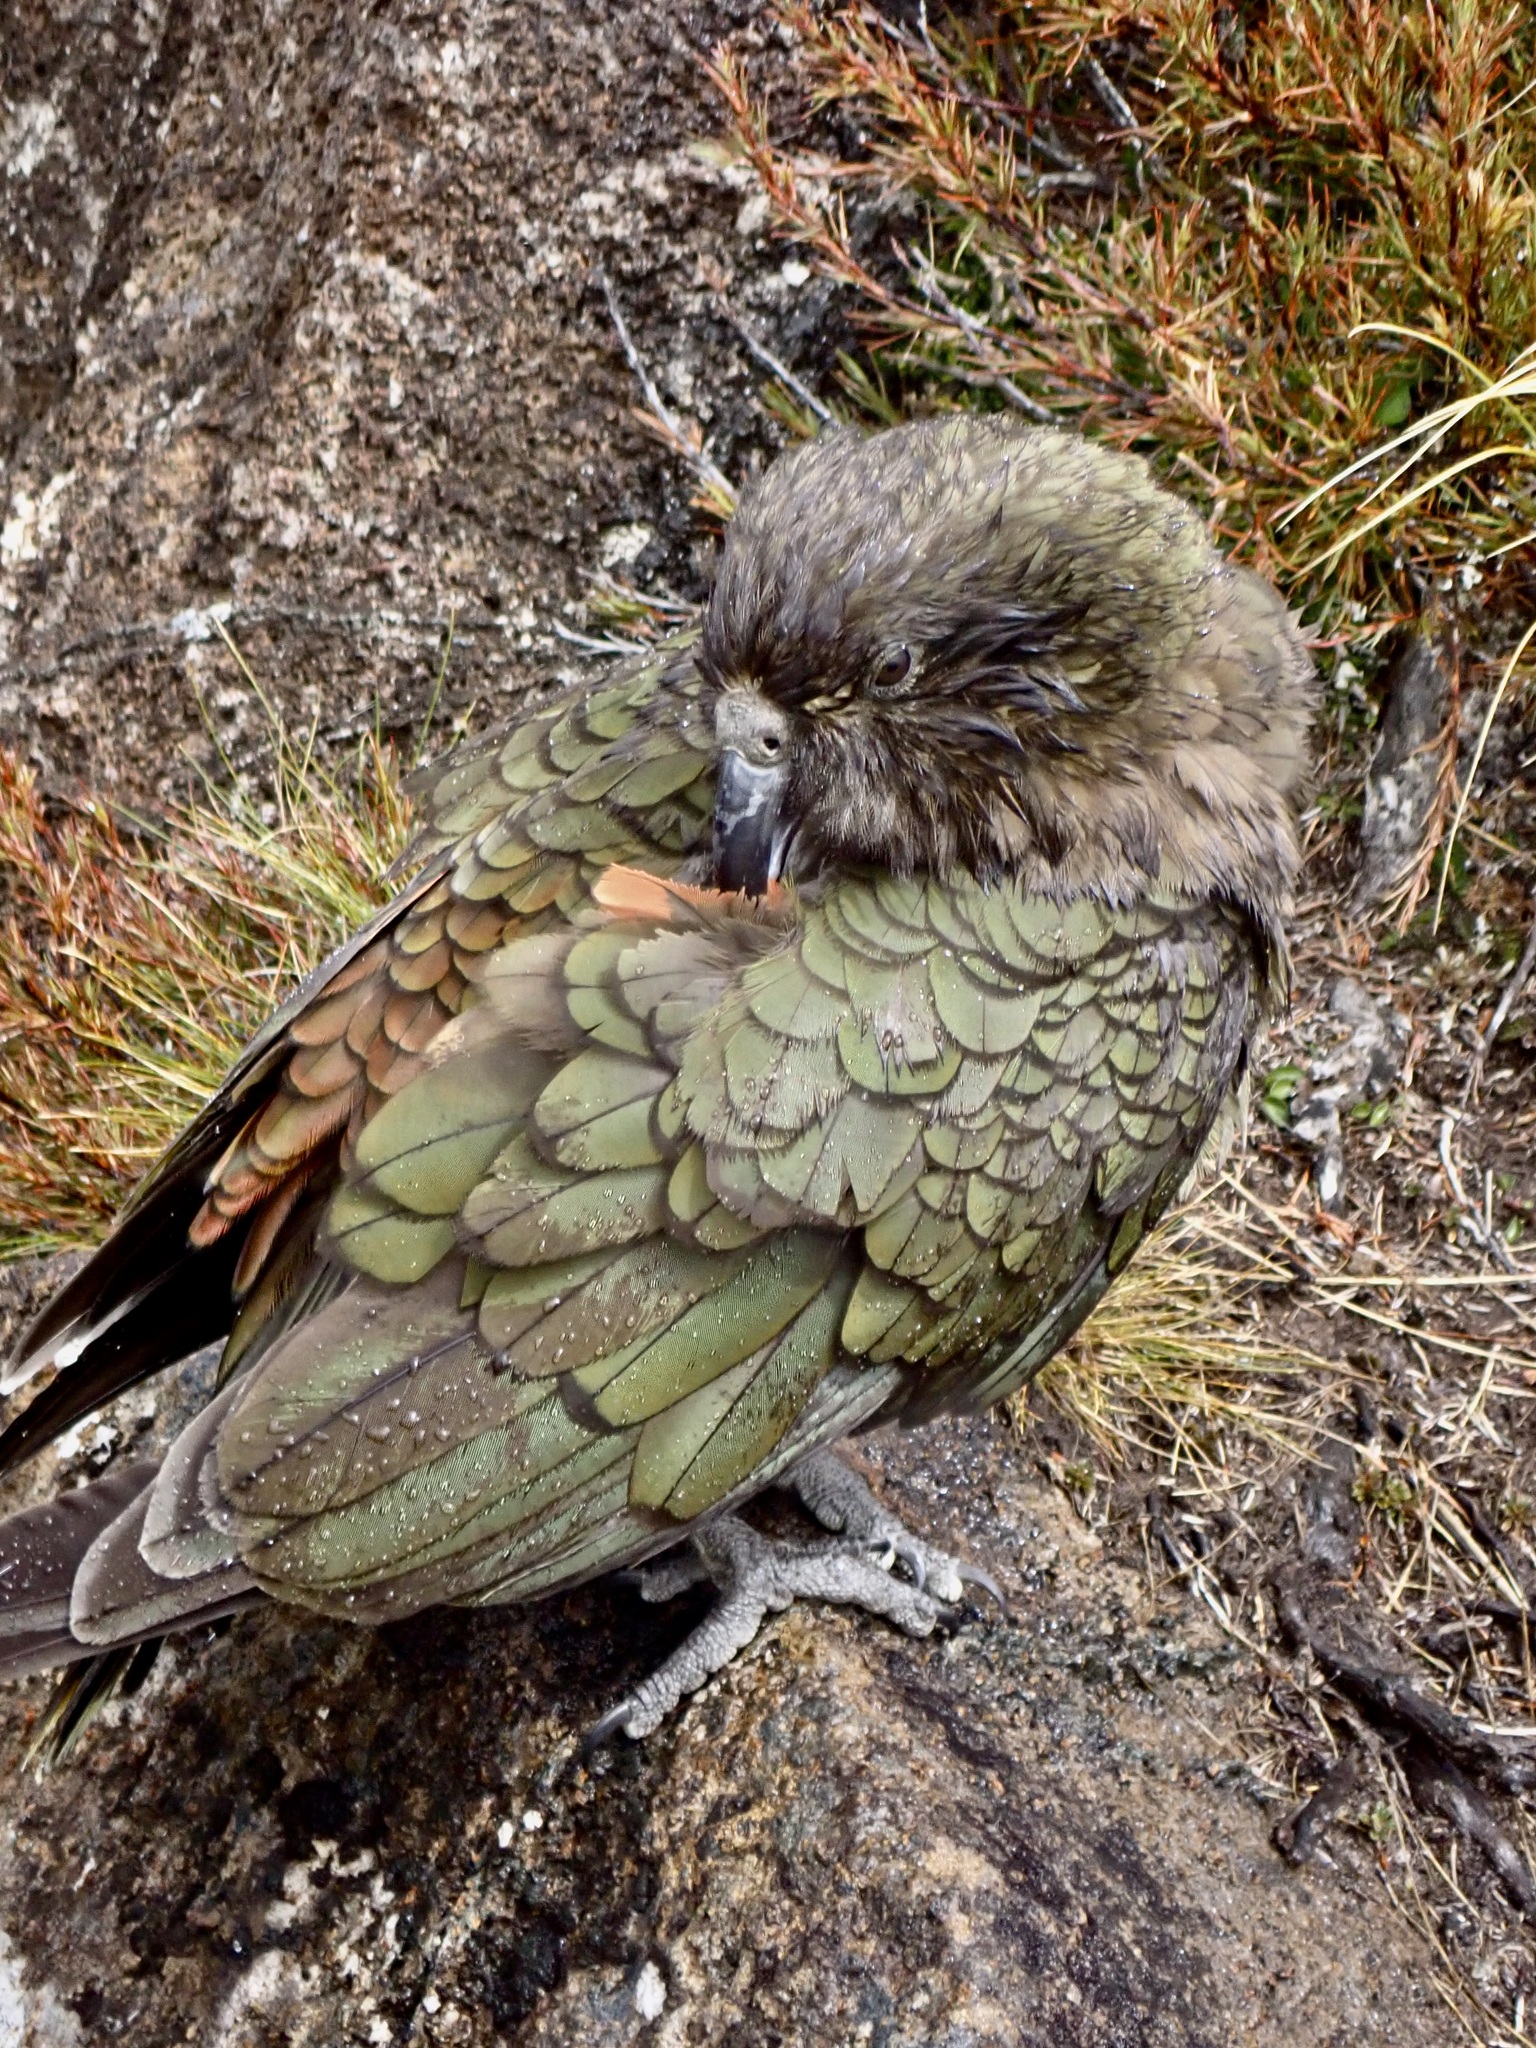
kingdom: Animalia
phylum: Chordata
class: Aves
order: Psittaciformes
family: Psittacidae
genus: Nestor
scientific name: Nestor notabilis
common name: Kea
